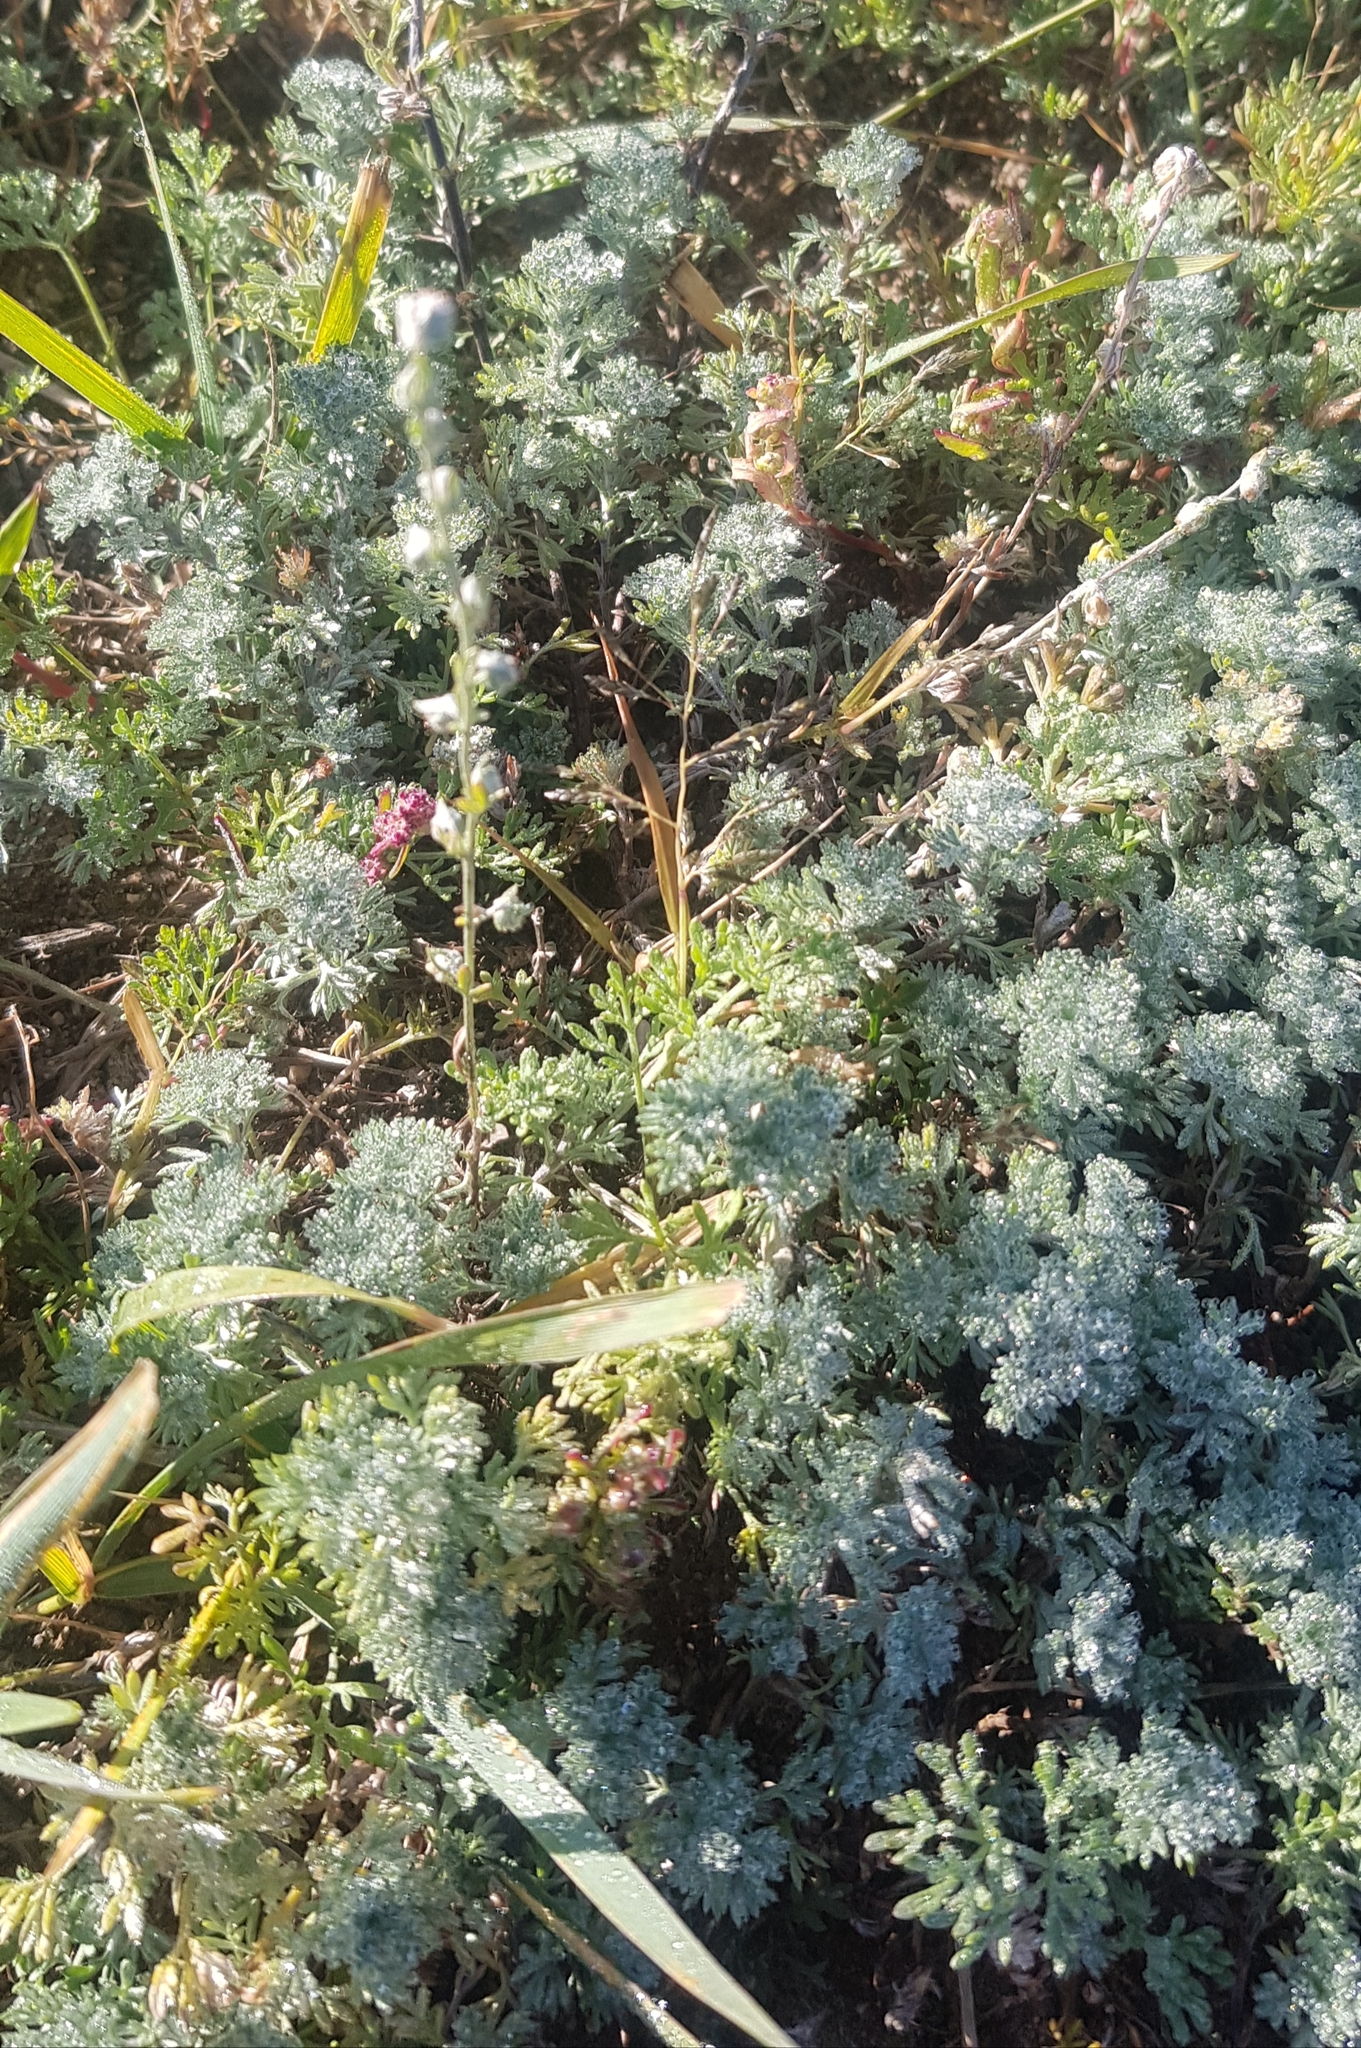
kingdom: Plantae
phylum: Tracheophyta
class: Magnoliopsida
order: Asterales
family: Asteraceae
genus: Artemisia
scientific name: Artemisia frigida
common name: Prairie sagewort
